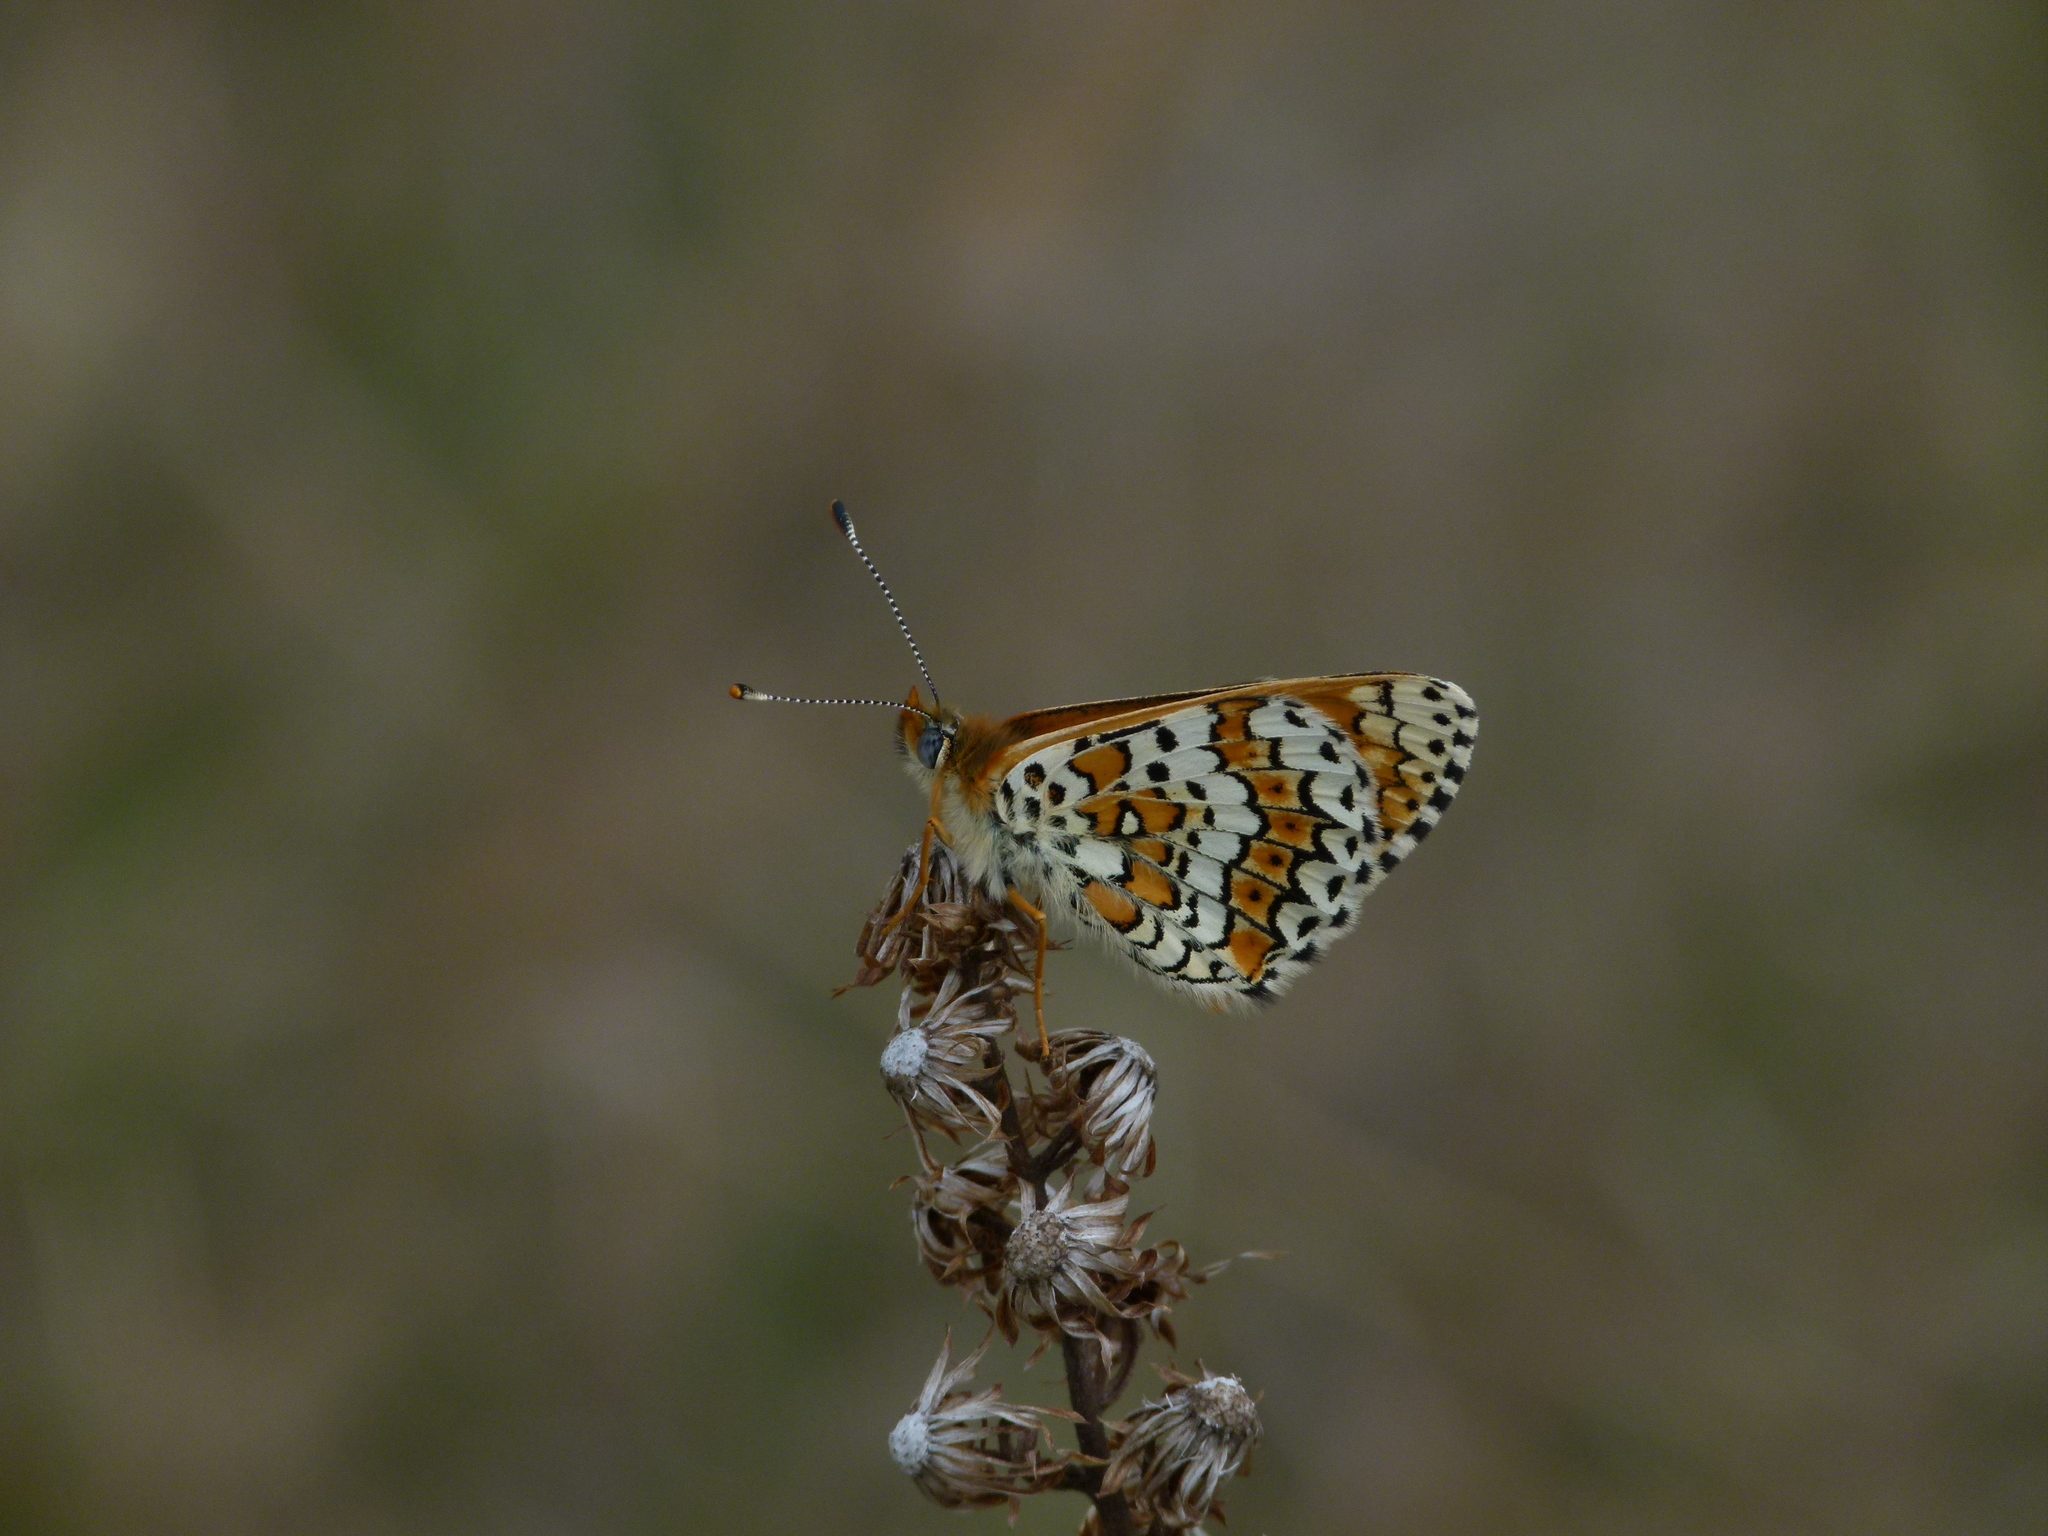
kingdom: Animalia
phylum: Arthropoda
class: Insecta
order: Lepidoptera
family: Nymphalidae
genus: Melitaea
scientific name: Melitaea cinxia
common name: Glanville fritillary
